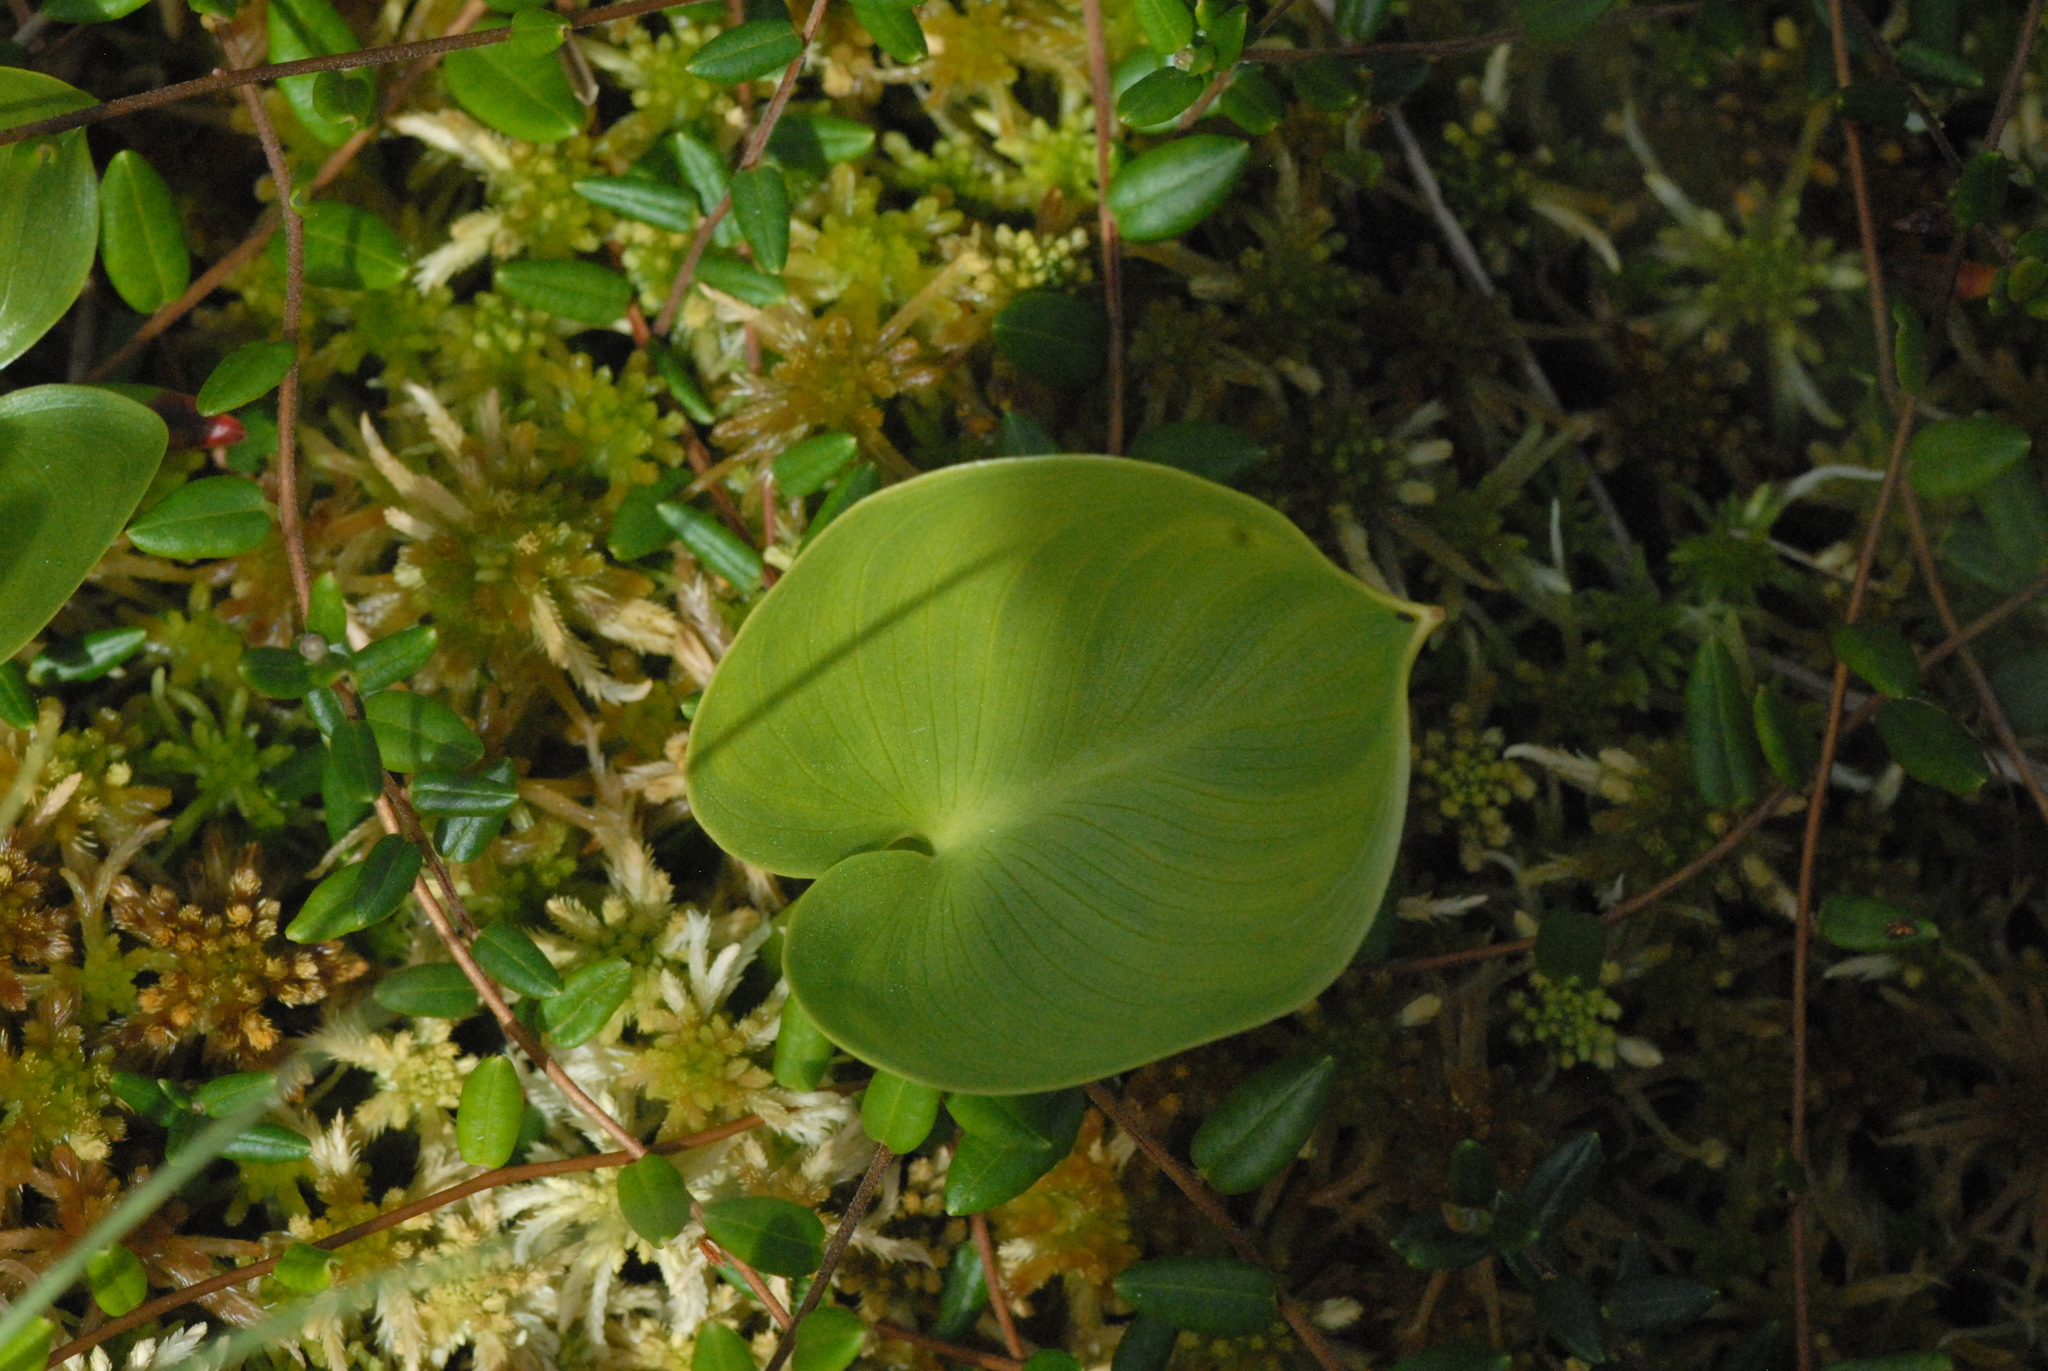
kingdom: Plantae
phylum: Tracheophyta
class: Liliopsida
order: Alismatales
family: Araceae
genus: Calla
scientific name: Calla palustris
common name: Bog arum
